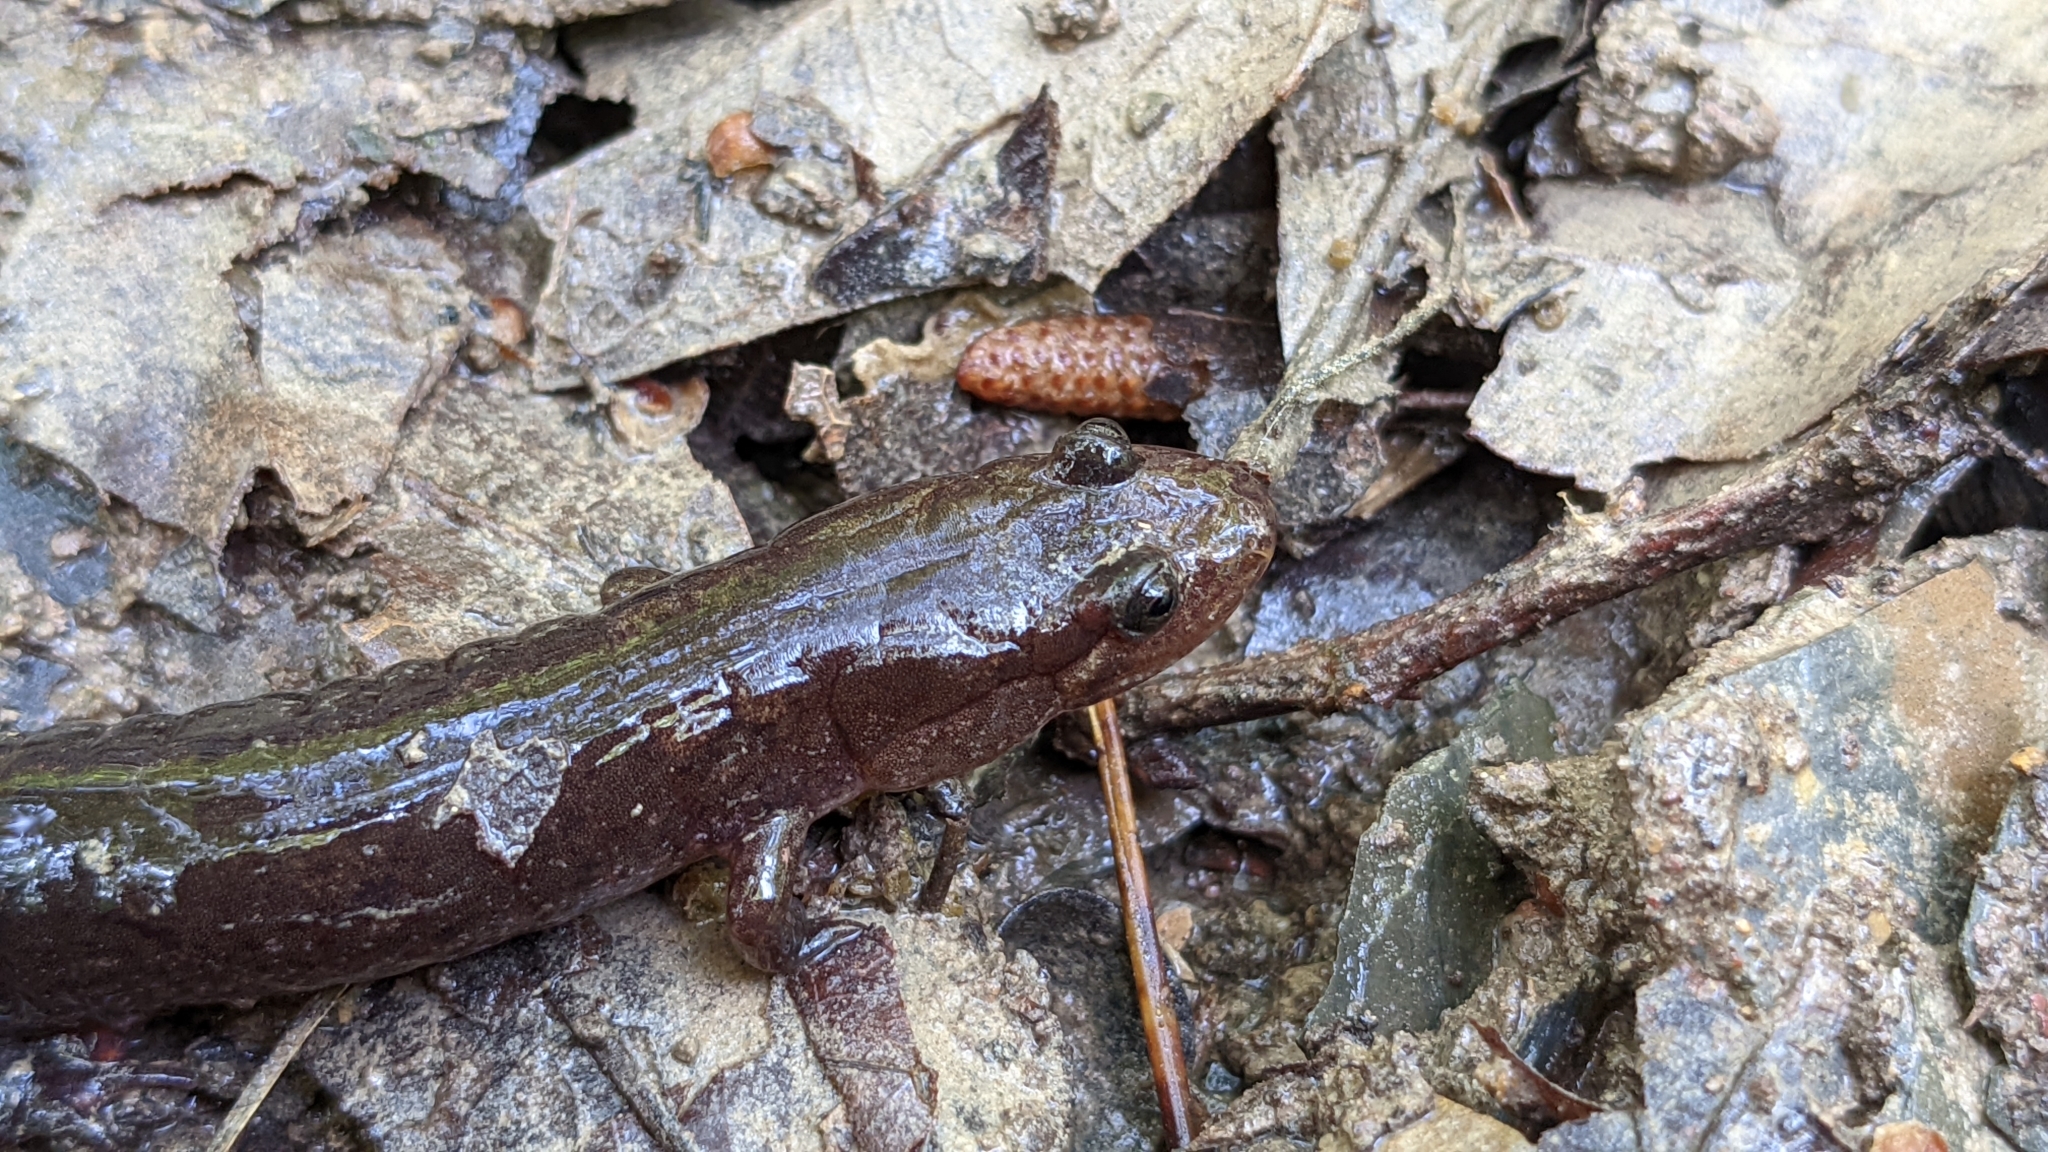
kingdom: Animalia
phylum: Chordata
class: Amphibia
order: Caudata
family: Plethodontidae
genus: Desmognathus
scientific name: Desmognathus brimleyorum
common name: Ouachita dusky salamander
